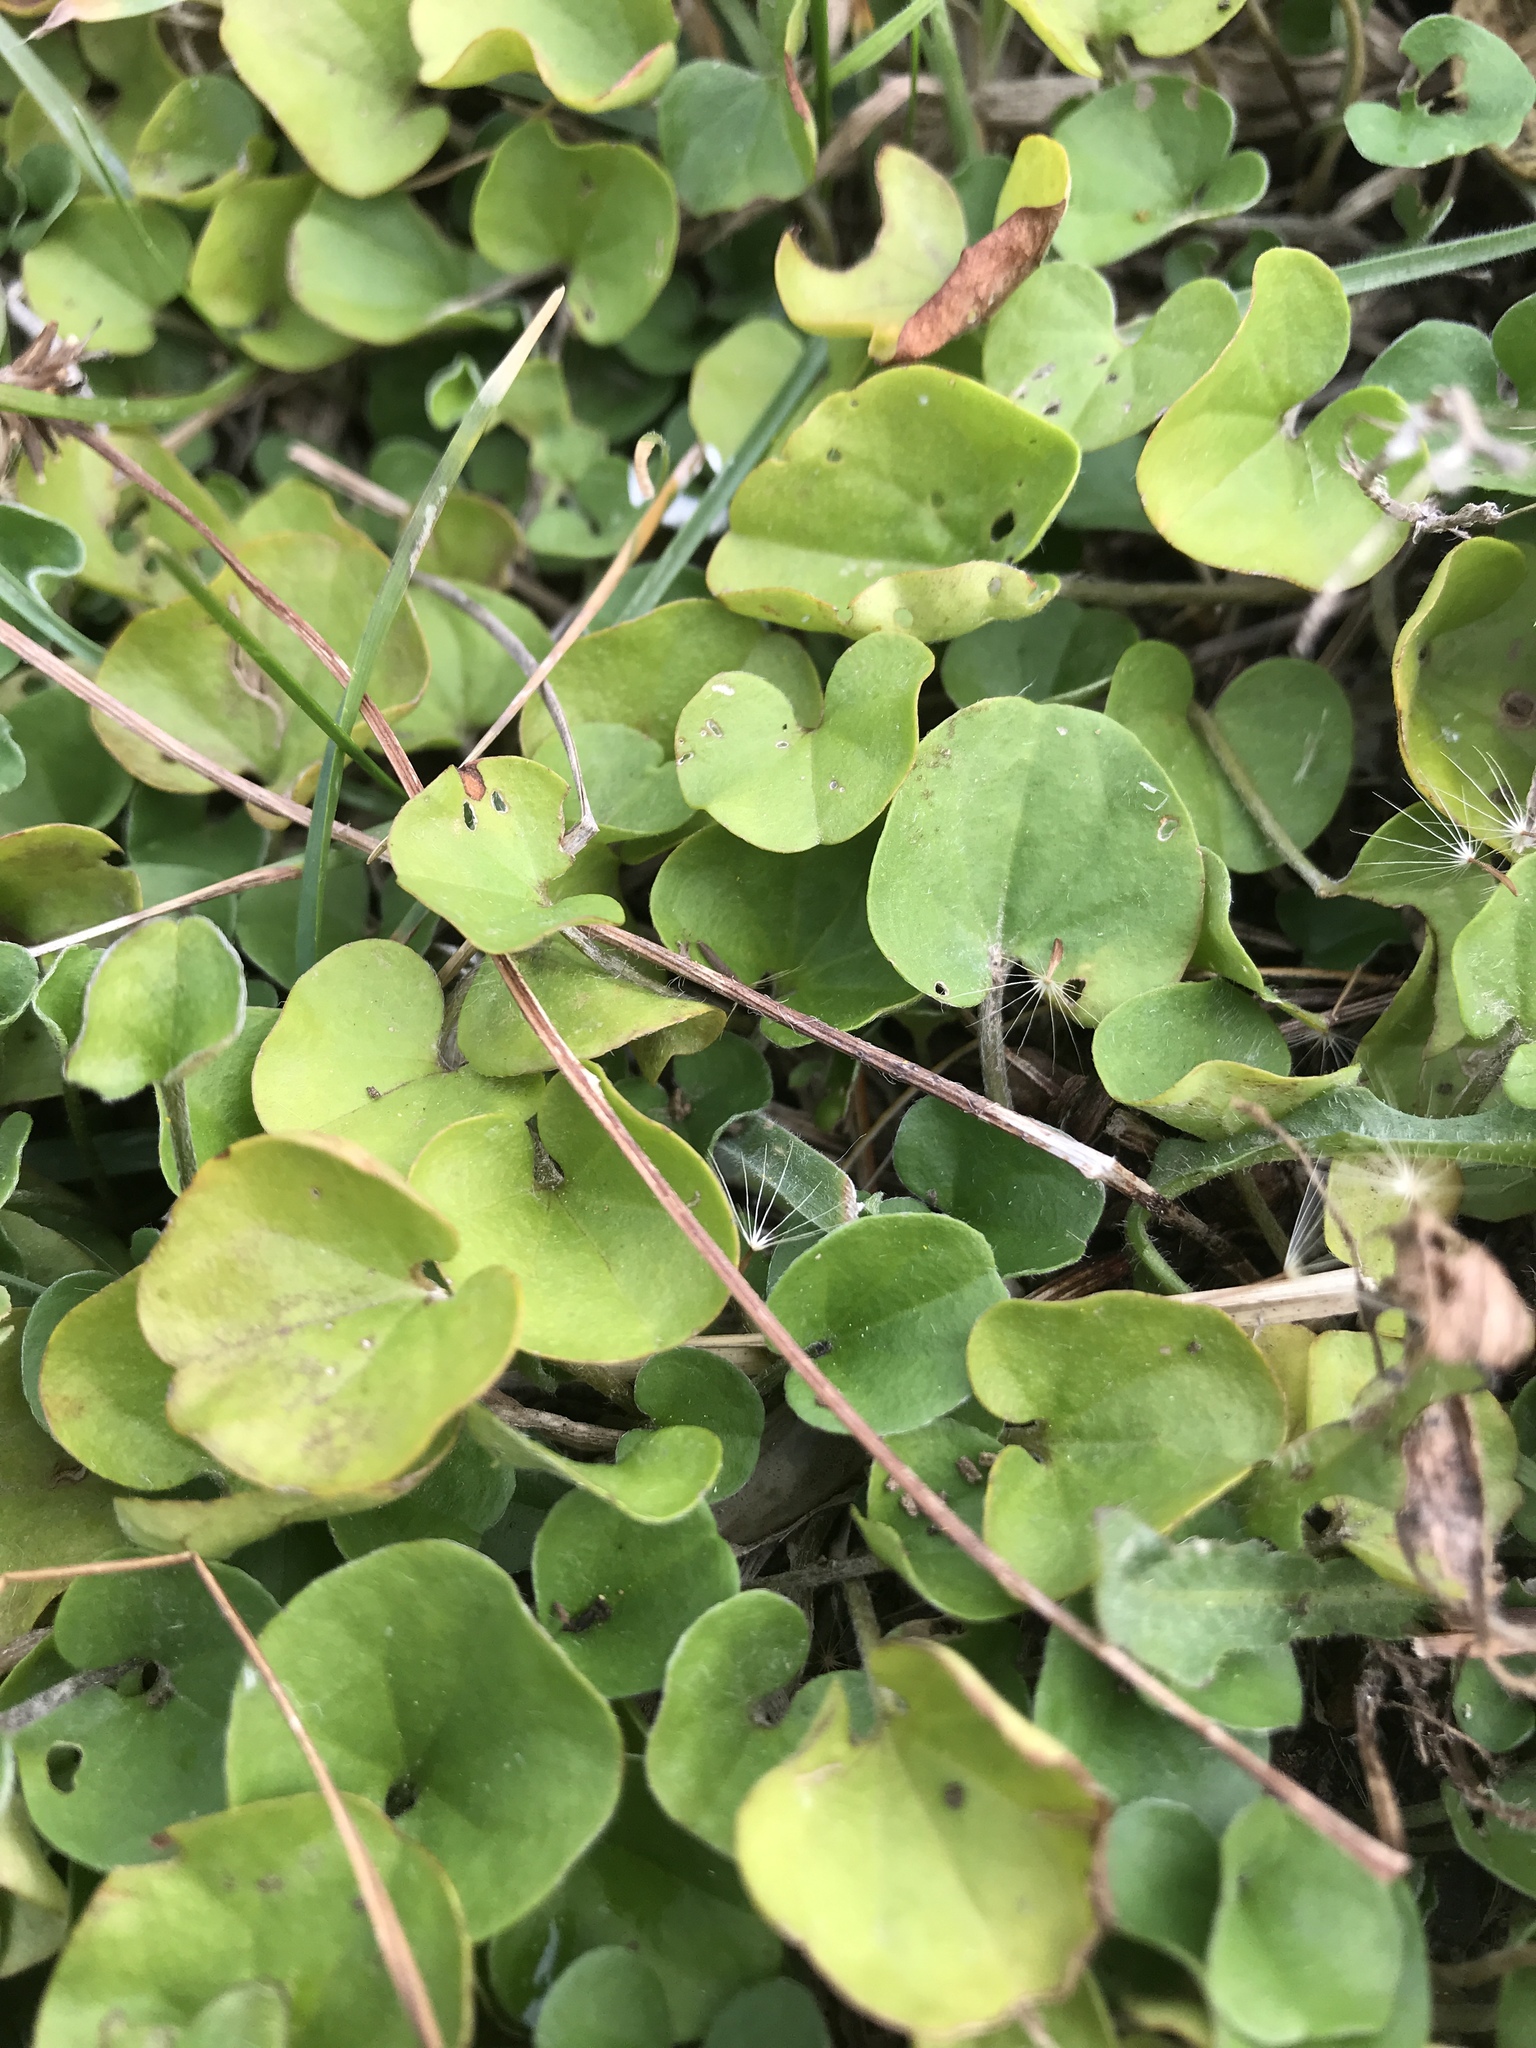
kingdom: Plantae
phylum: Tracheophyta
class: Magnoliopsida
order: Solanales
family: Convolvulaceae
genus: Dichondra
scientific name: Dichondra repens
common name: Kidneyweed
